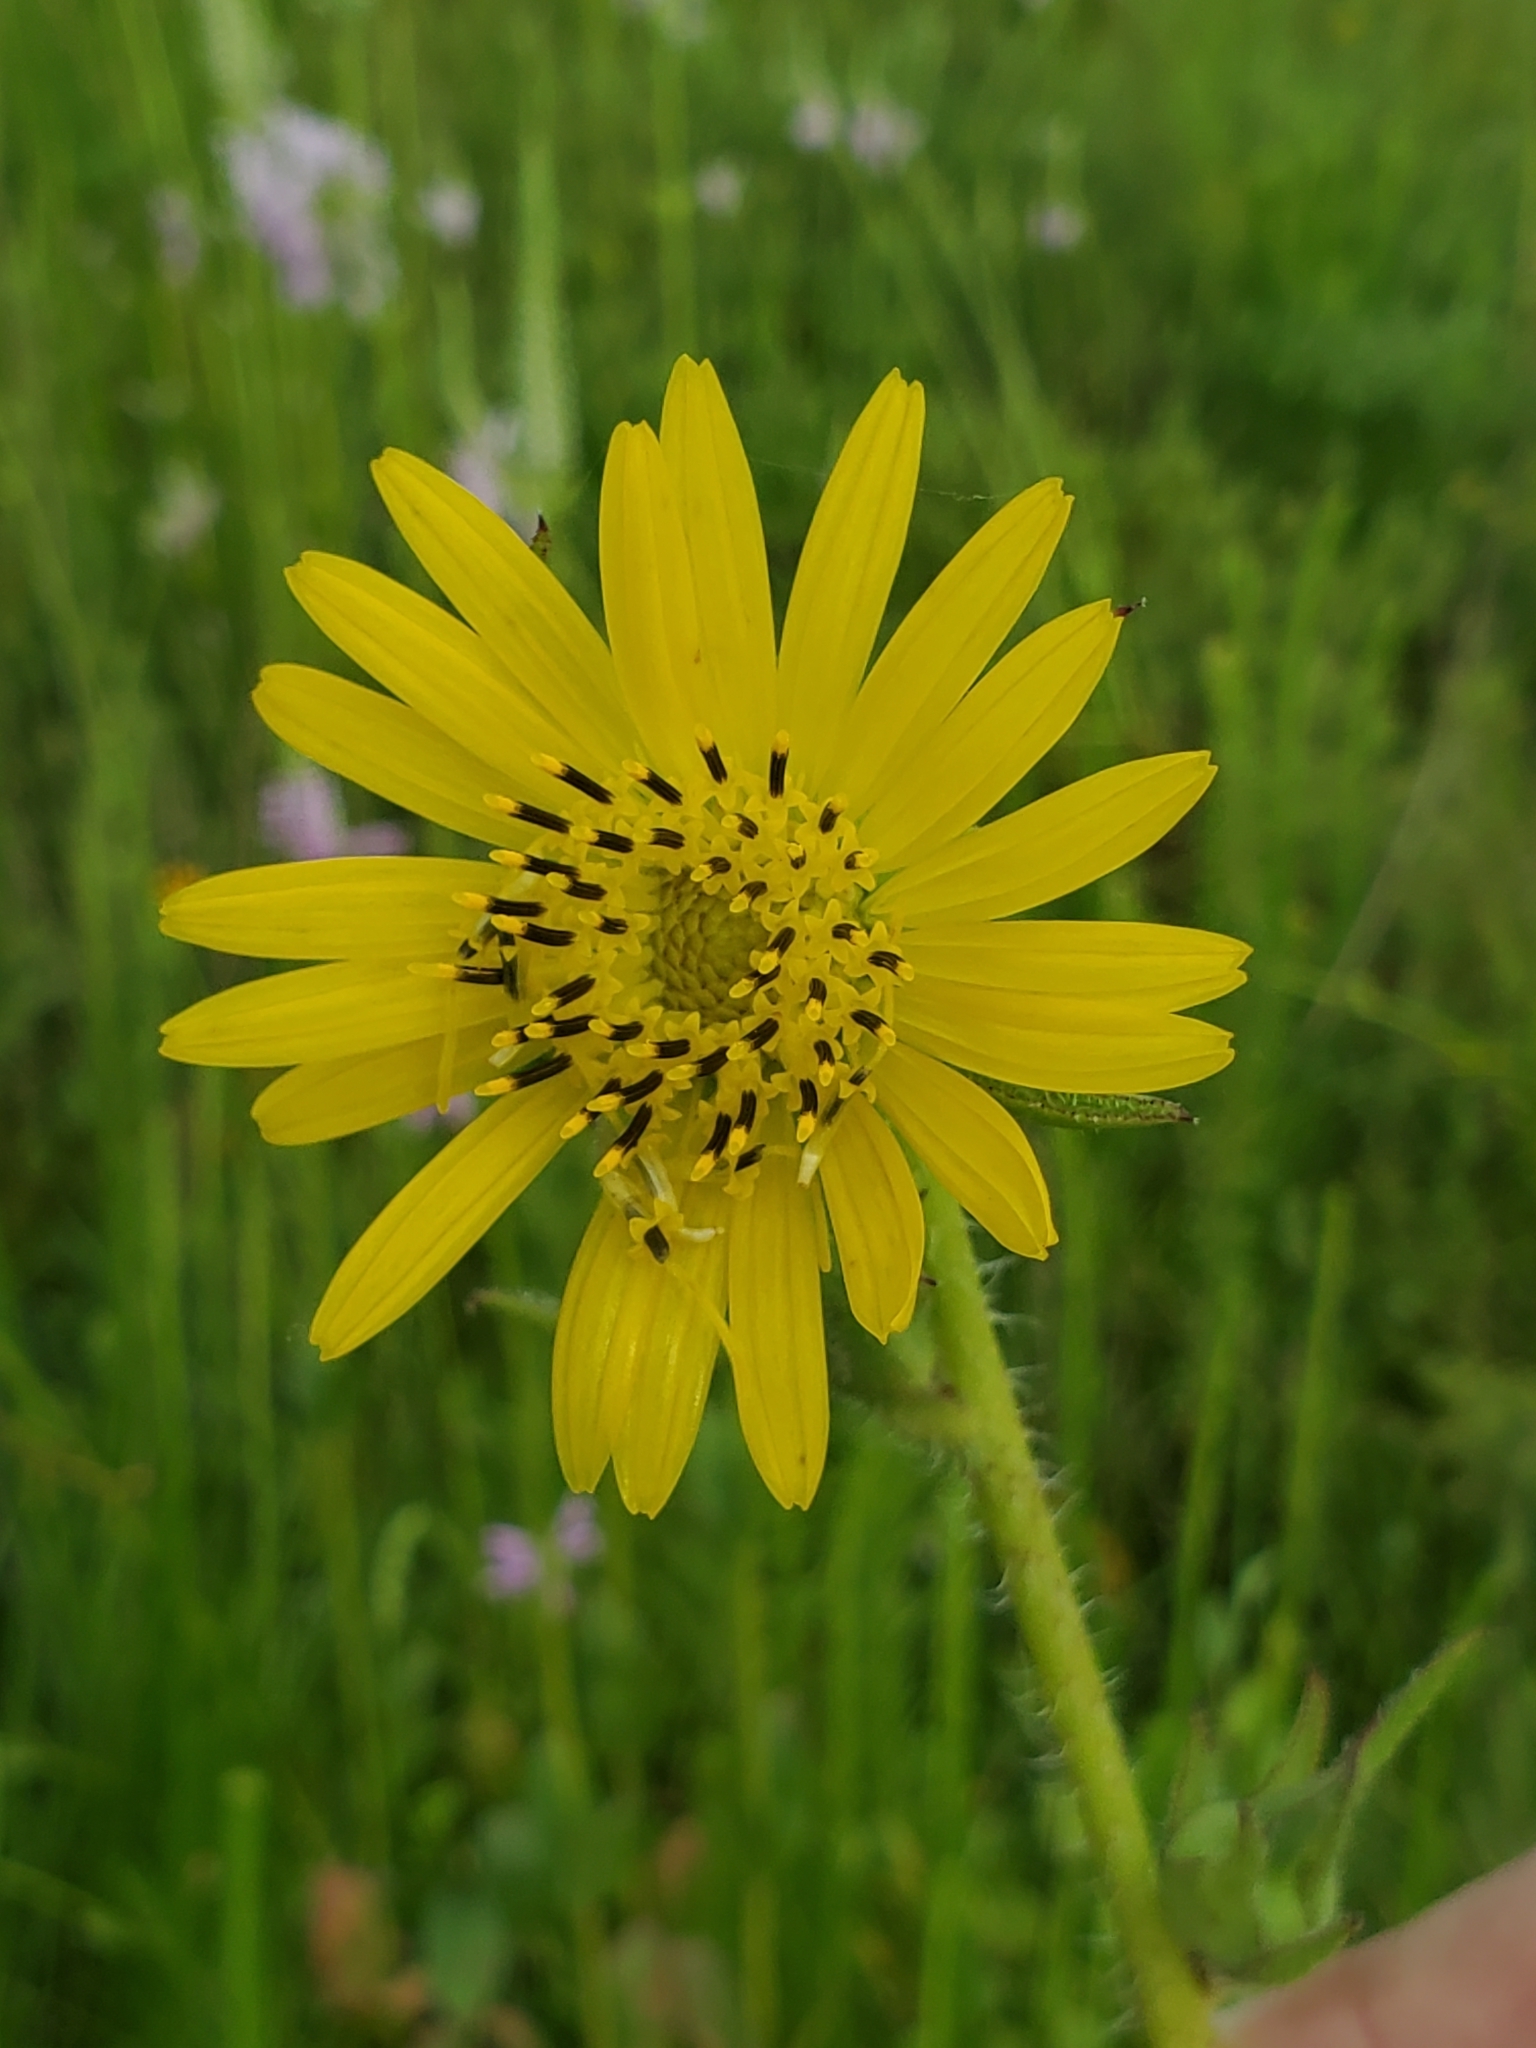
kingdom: Plantae
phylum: Tracheophyta
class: Magnoliopsida
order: Asterales
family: Asteraceae
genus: Silphium
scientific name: Silphium laciniatum
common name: Polarplant
